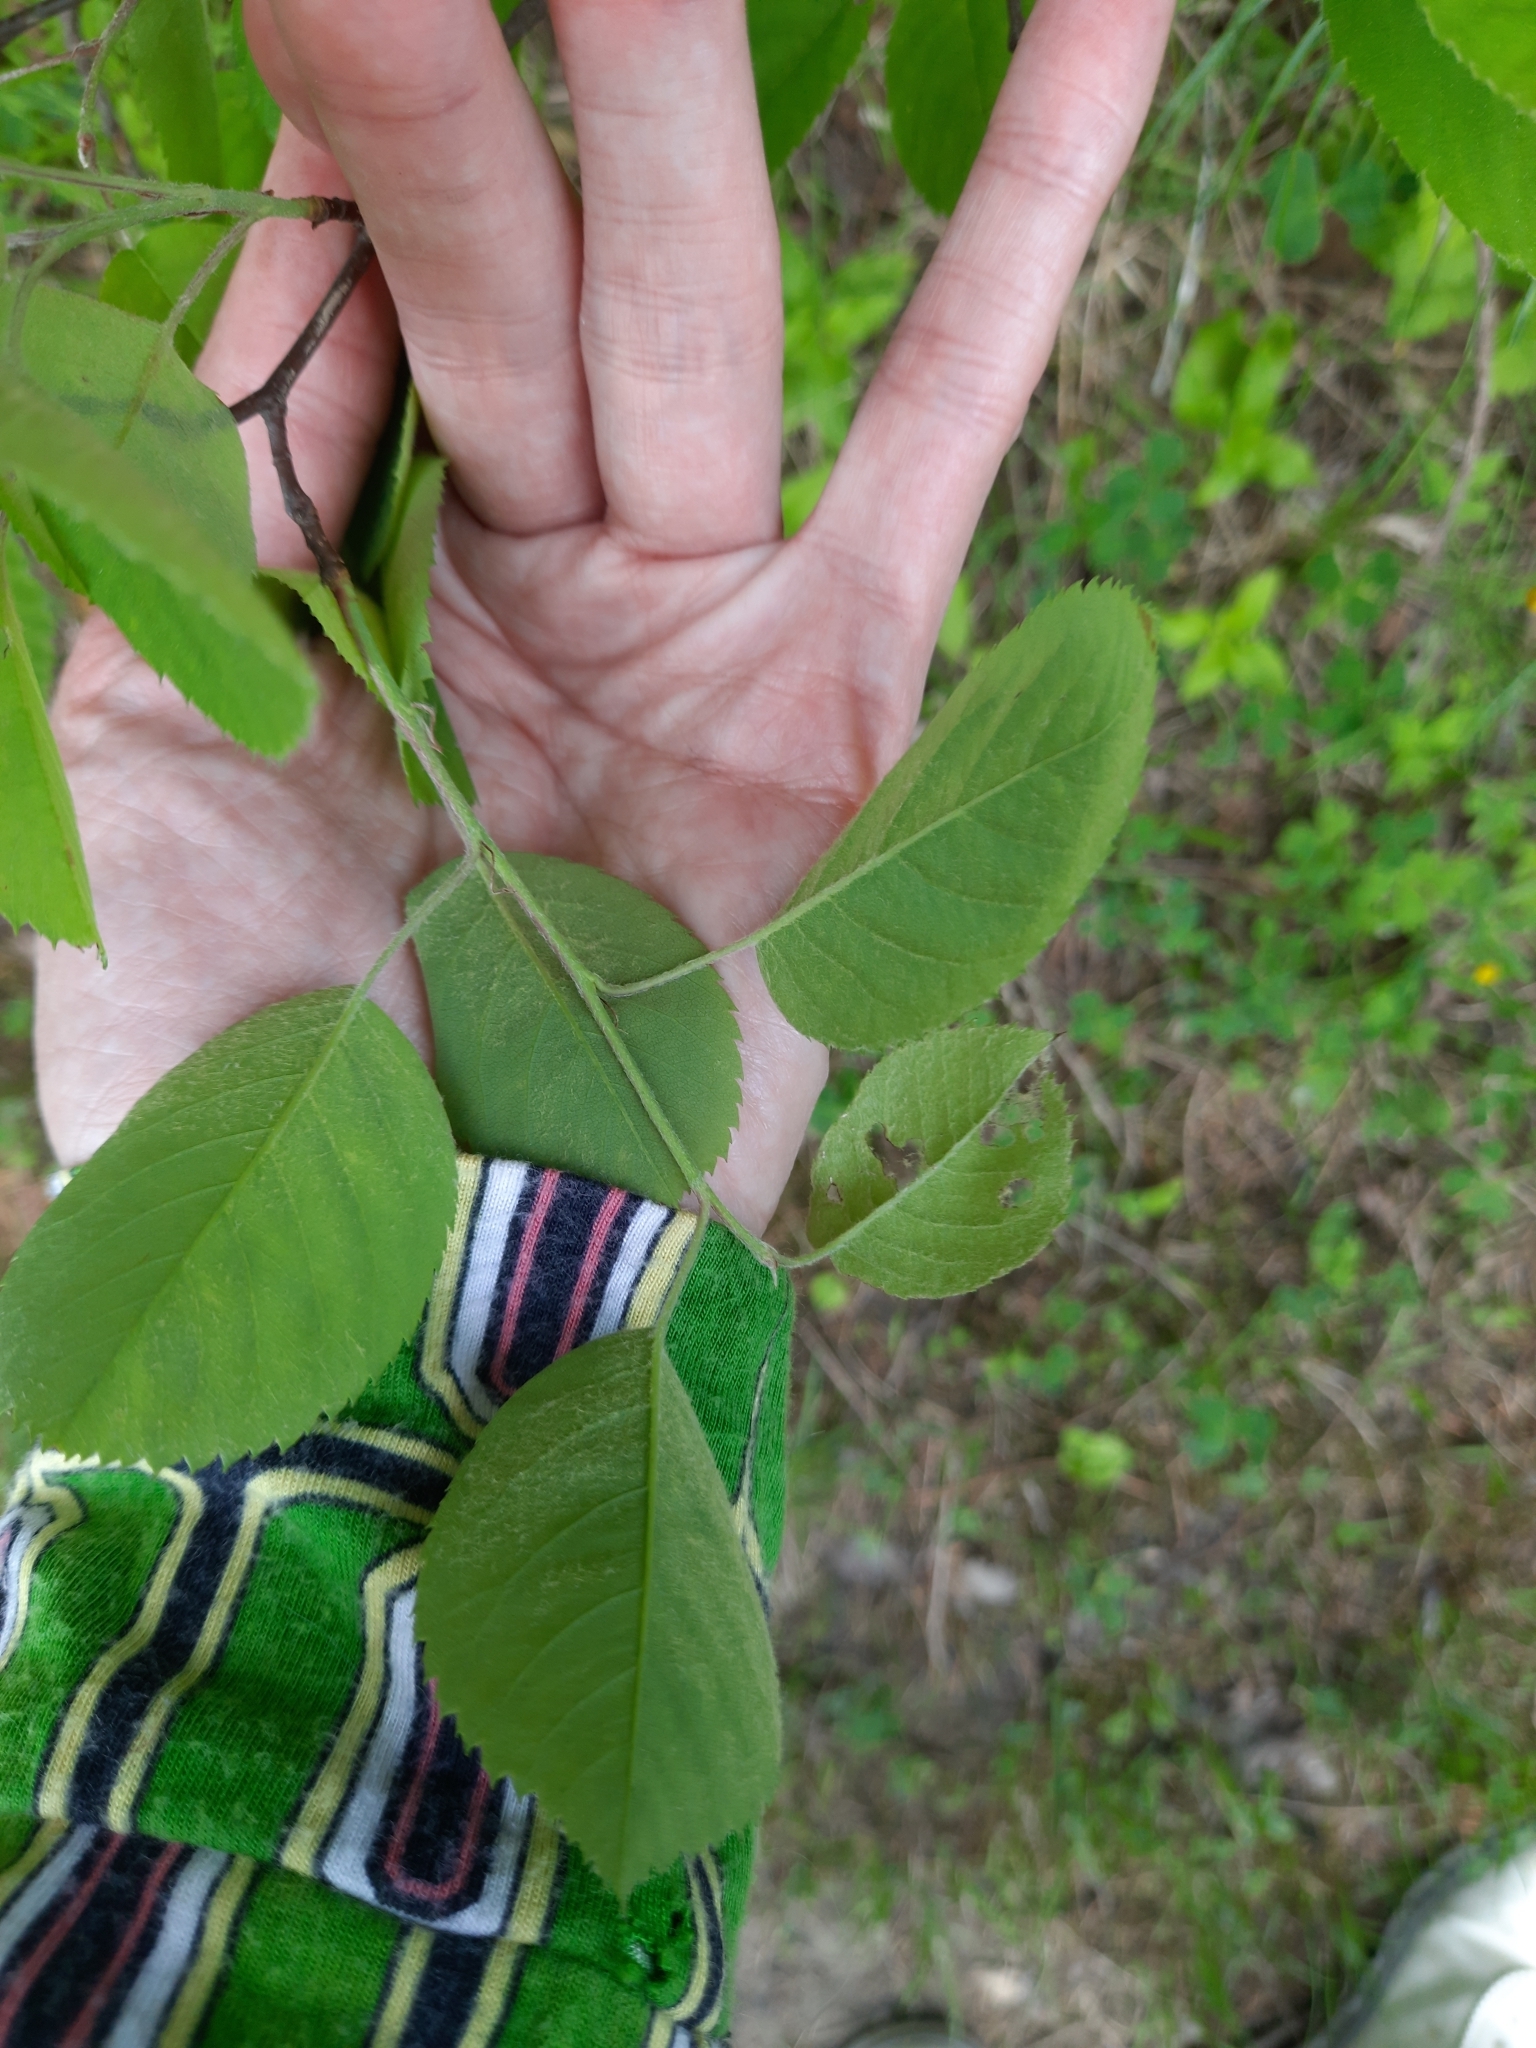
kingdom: Plantae
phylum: Tracheophyta
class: Magnoliopsida
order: Rosales
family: Rosaceae
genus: Amelanchier
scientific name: Amelanchier
